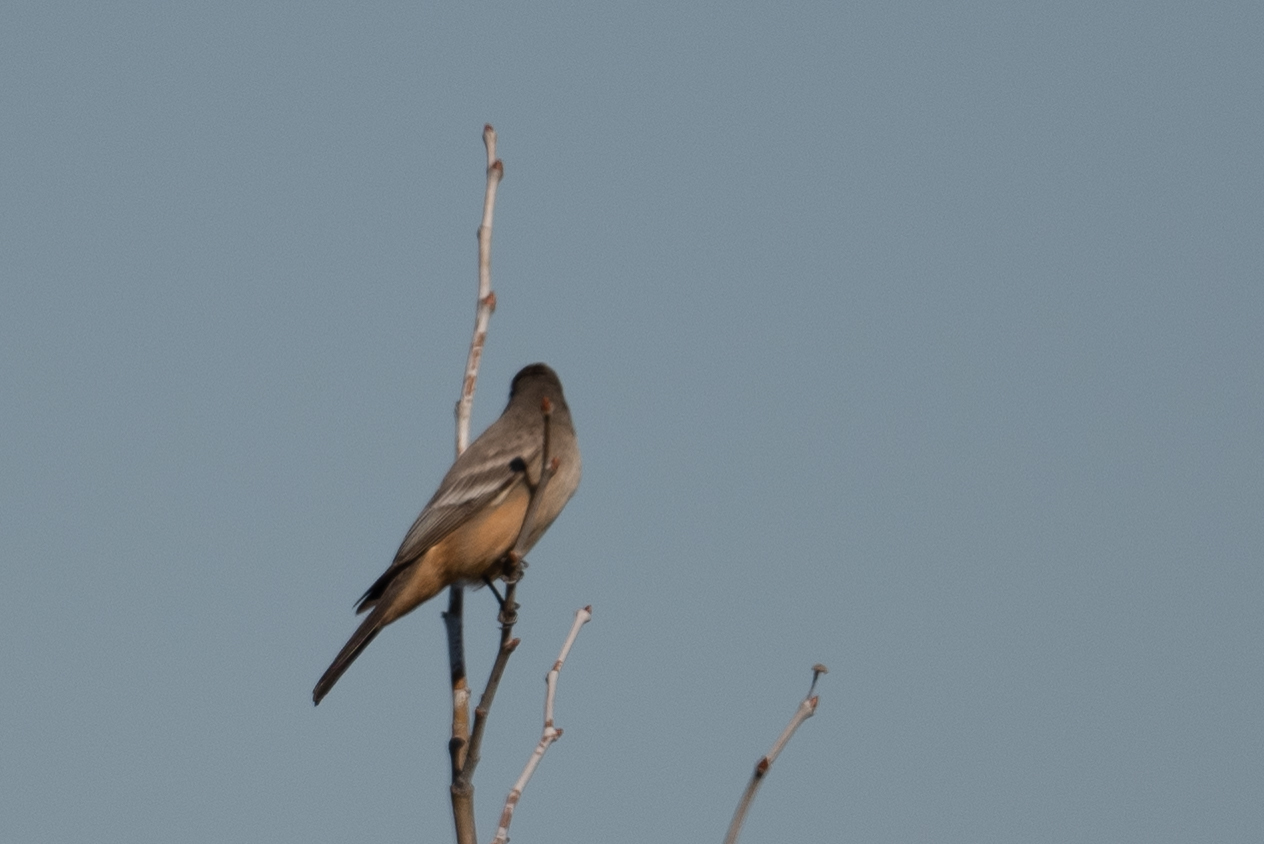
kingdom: Animalia
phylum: Chordata
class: Aves
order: Passeriformes
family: Tyrannidae
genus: Sayornis
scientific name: Sayornis saya
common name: Say's phoebe
